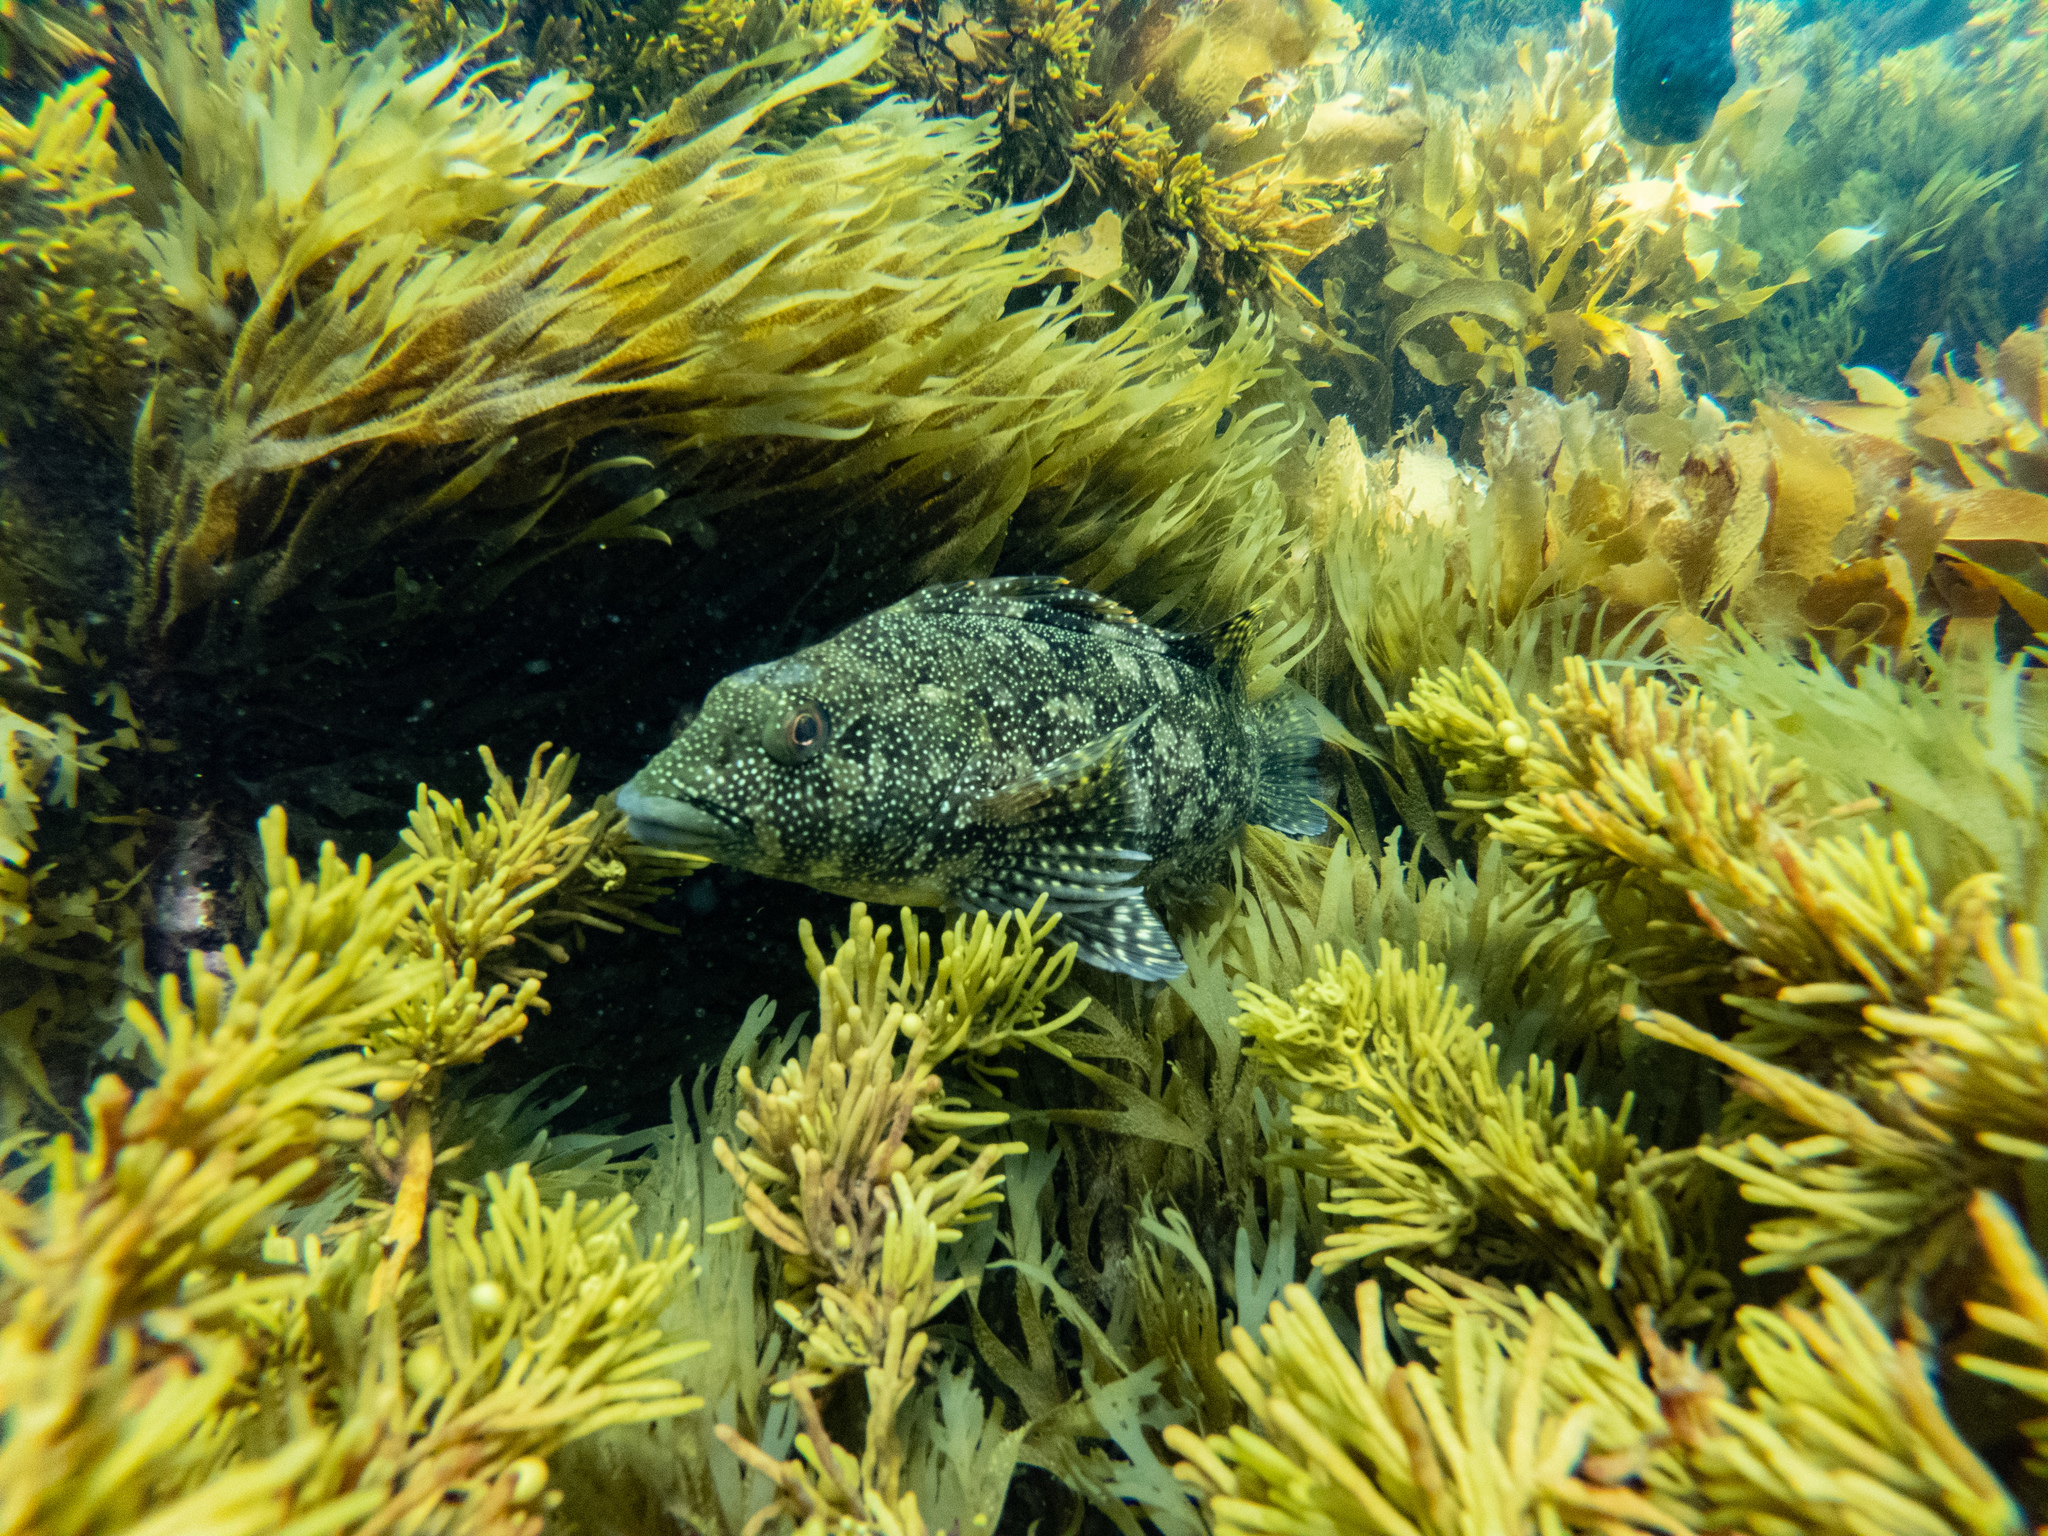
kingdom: Animalia
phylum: Chordata
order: Perciformes
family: Chironemidae
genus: Chironemus
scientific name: Chironemus marmoratus
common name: Kelpfish
